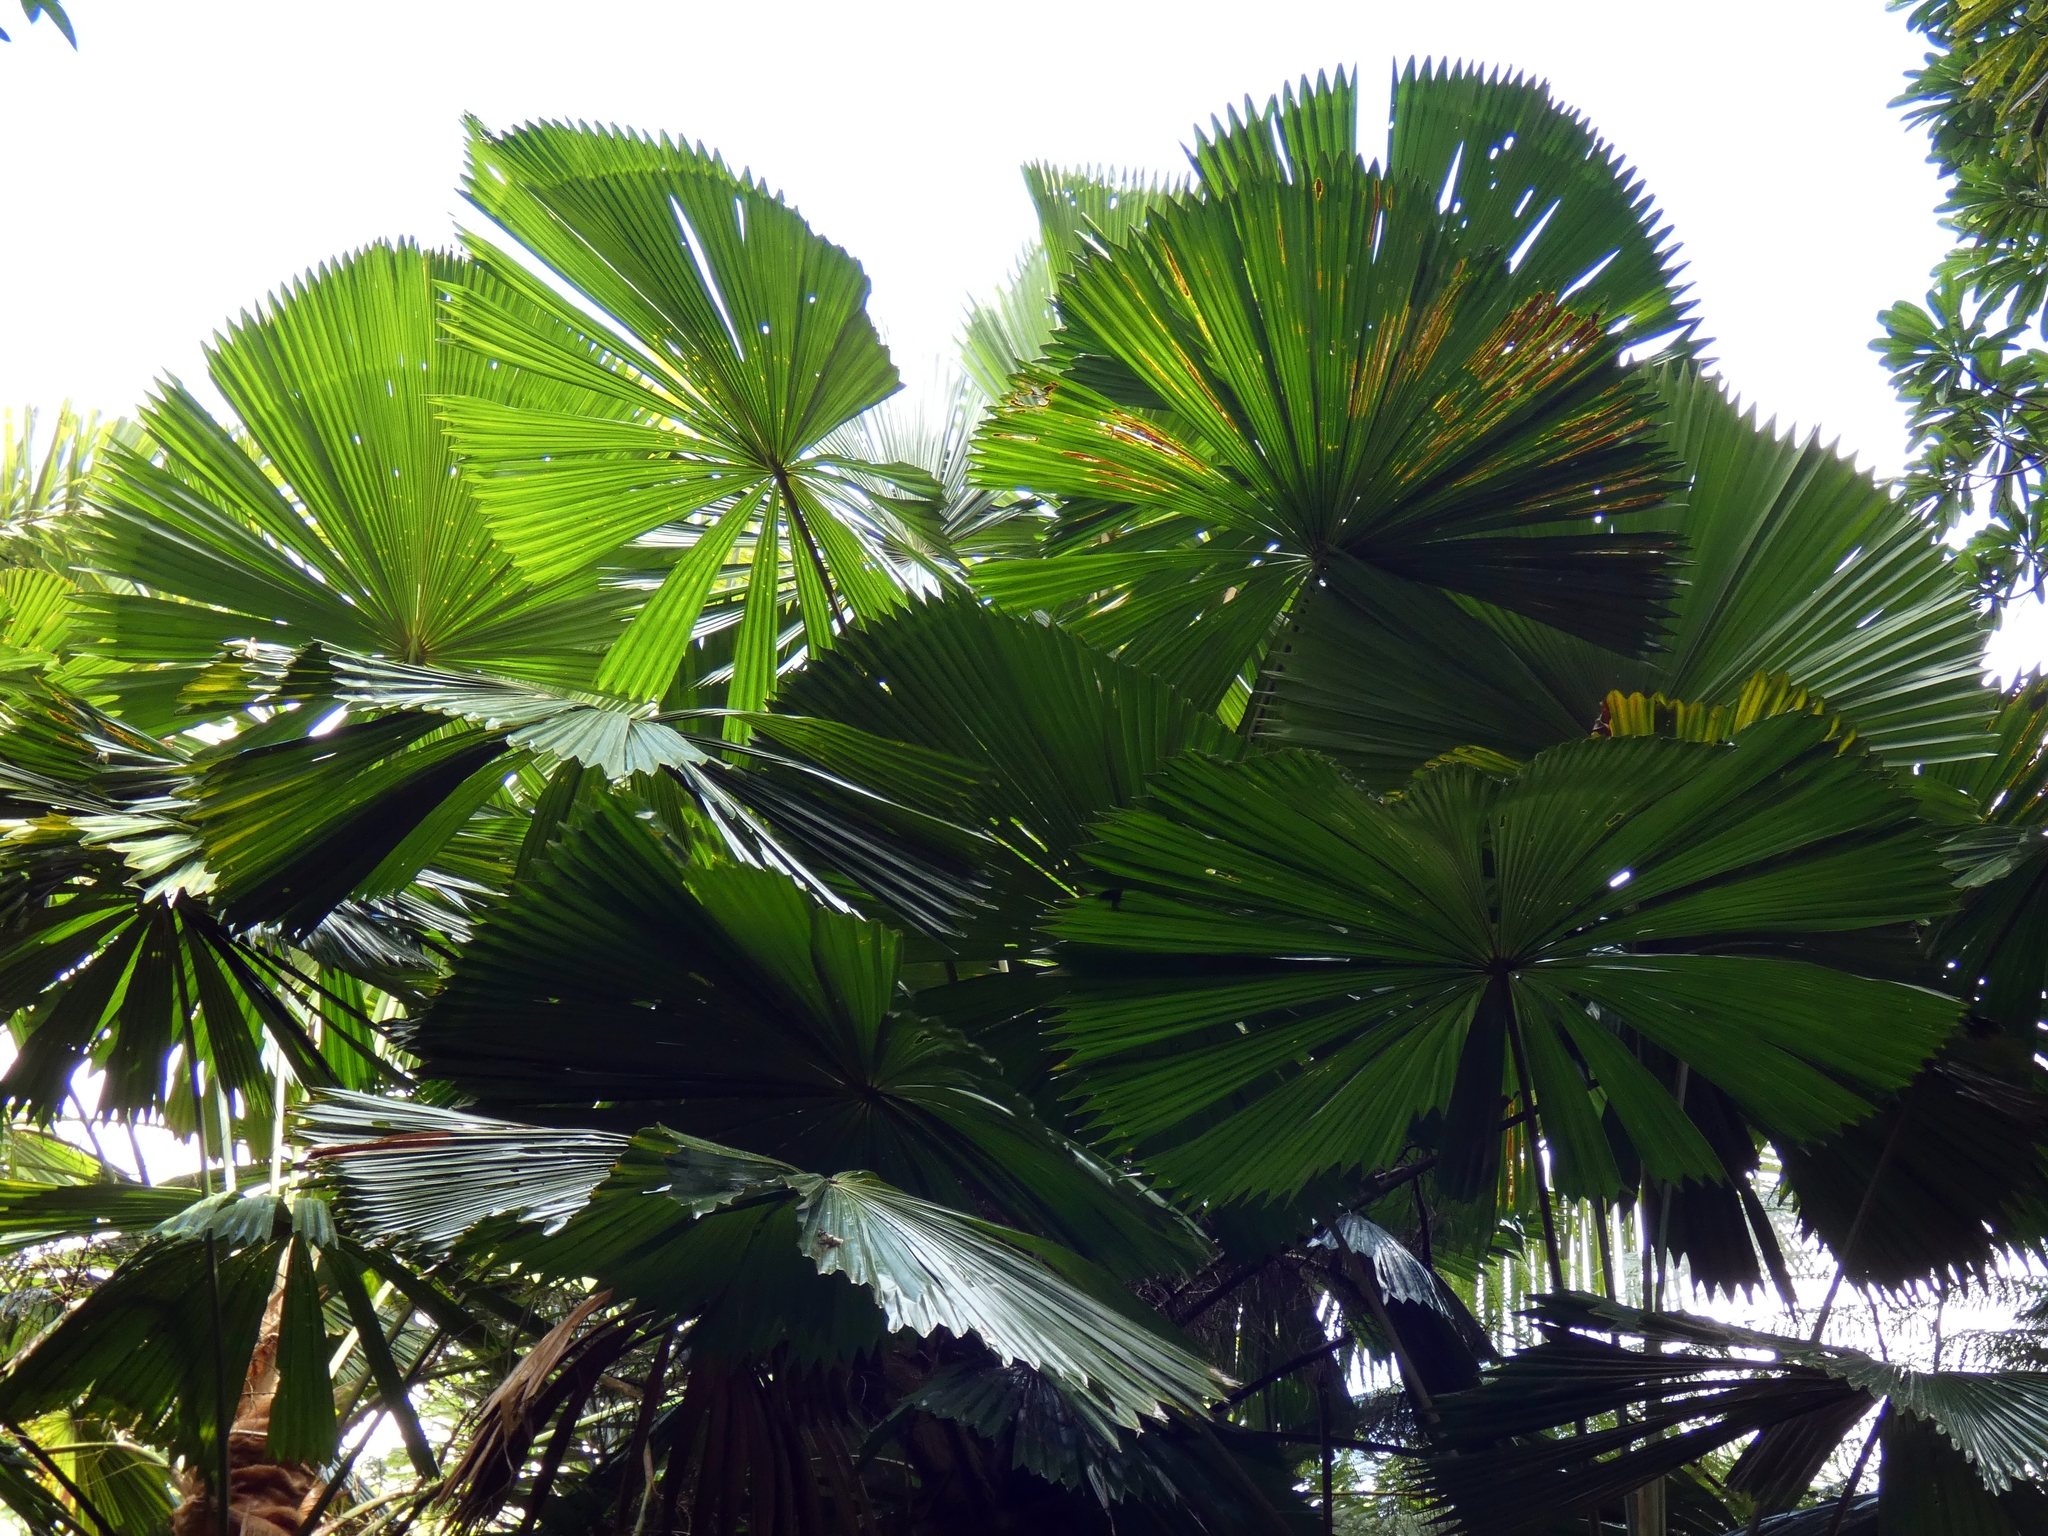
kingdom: Plantae
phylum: Tracheophyta
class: Liliopsida
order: Arecales
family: Arecaceae
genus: Licuala
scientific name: Licuala ramsayi
